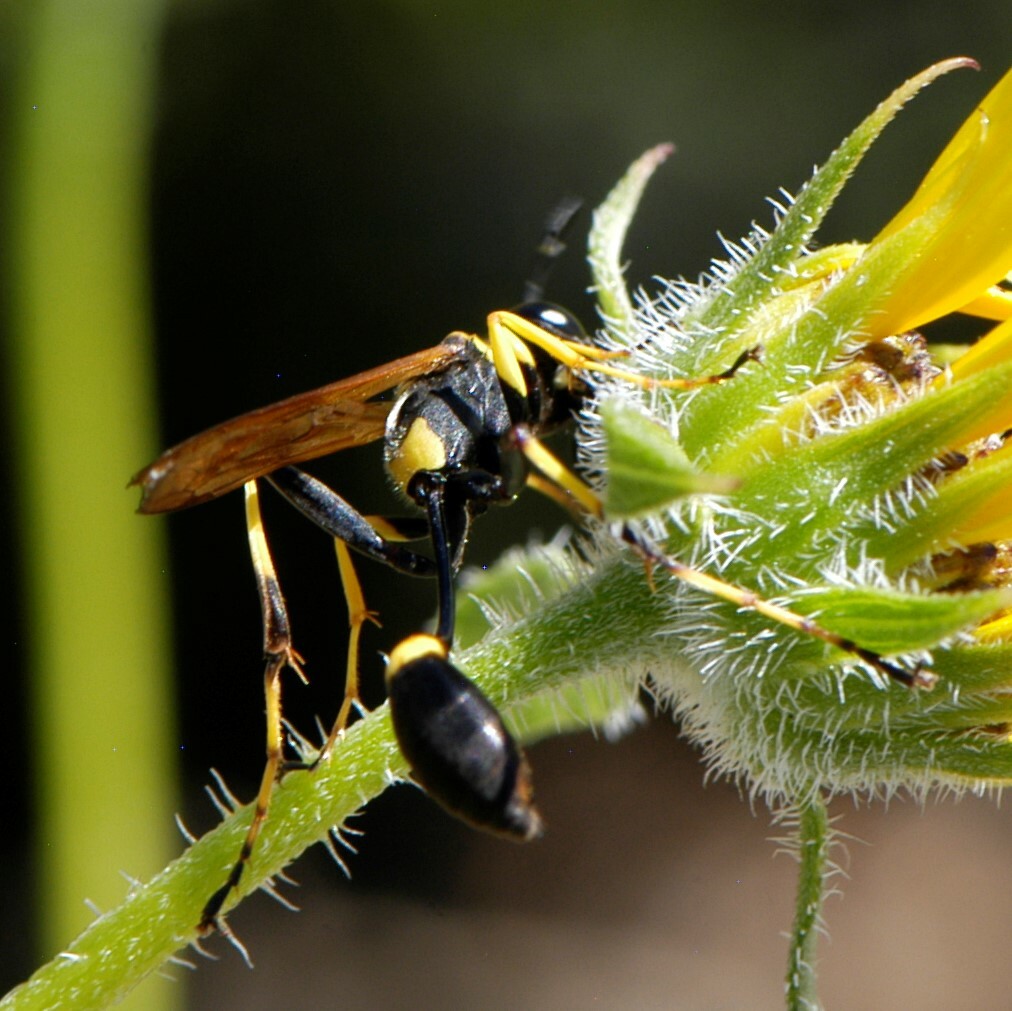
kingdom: Animalia
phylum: Arthropoda
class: Insecta
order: Hymenoptera
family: Sphecidae
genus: Sceliphron
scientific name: Sceliphron caementarium
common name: Mud dauber
